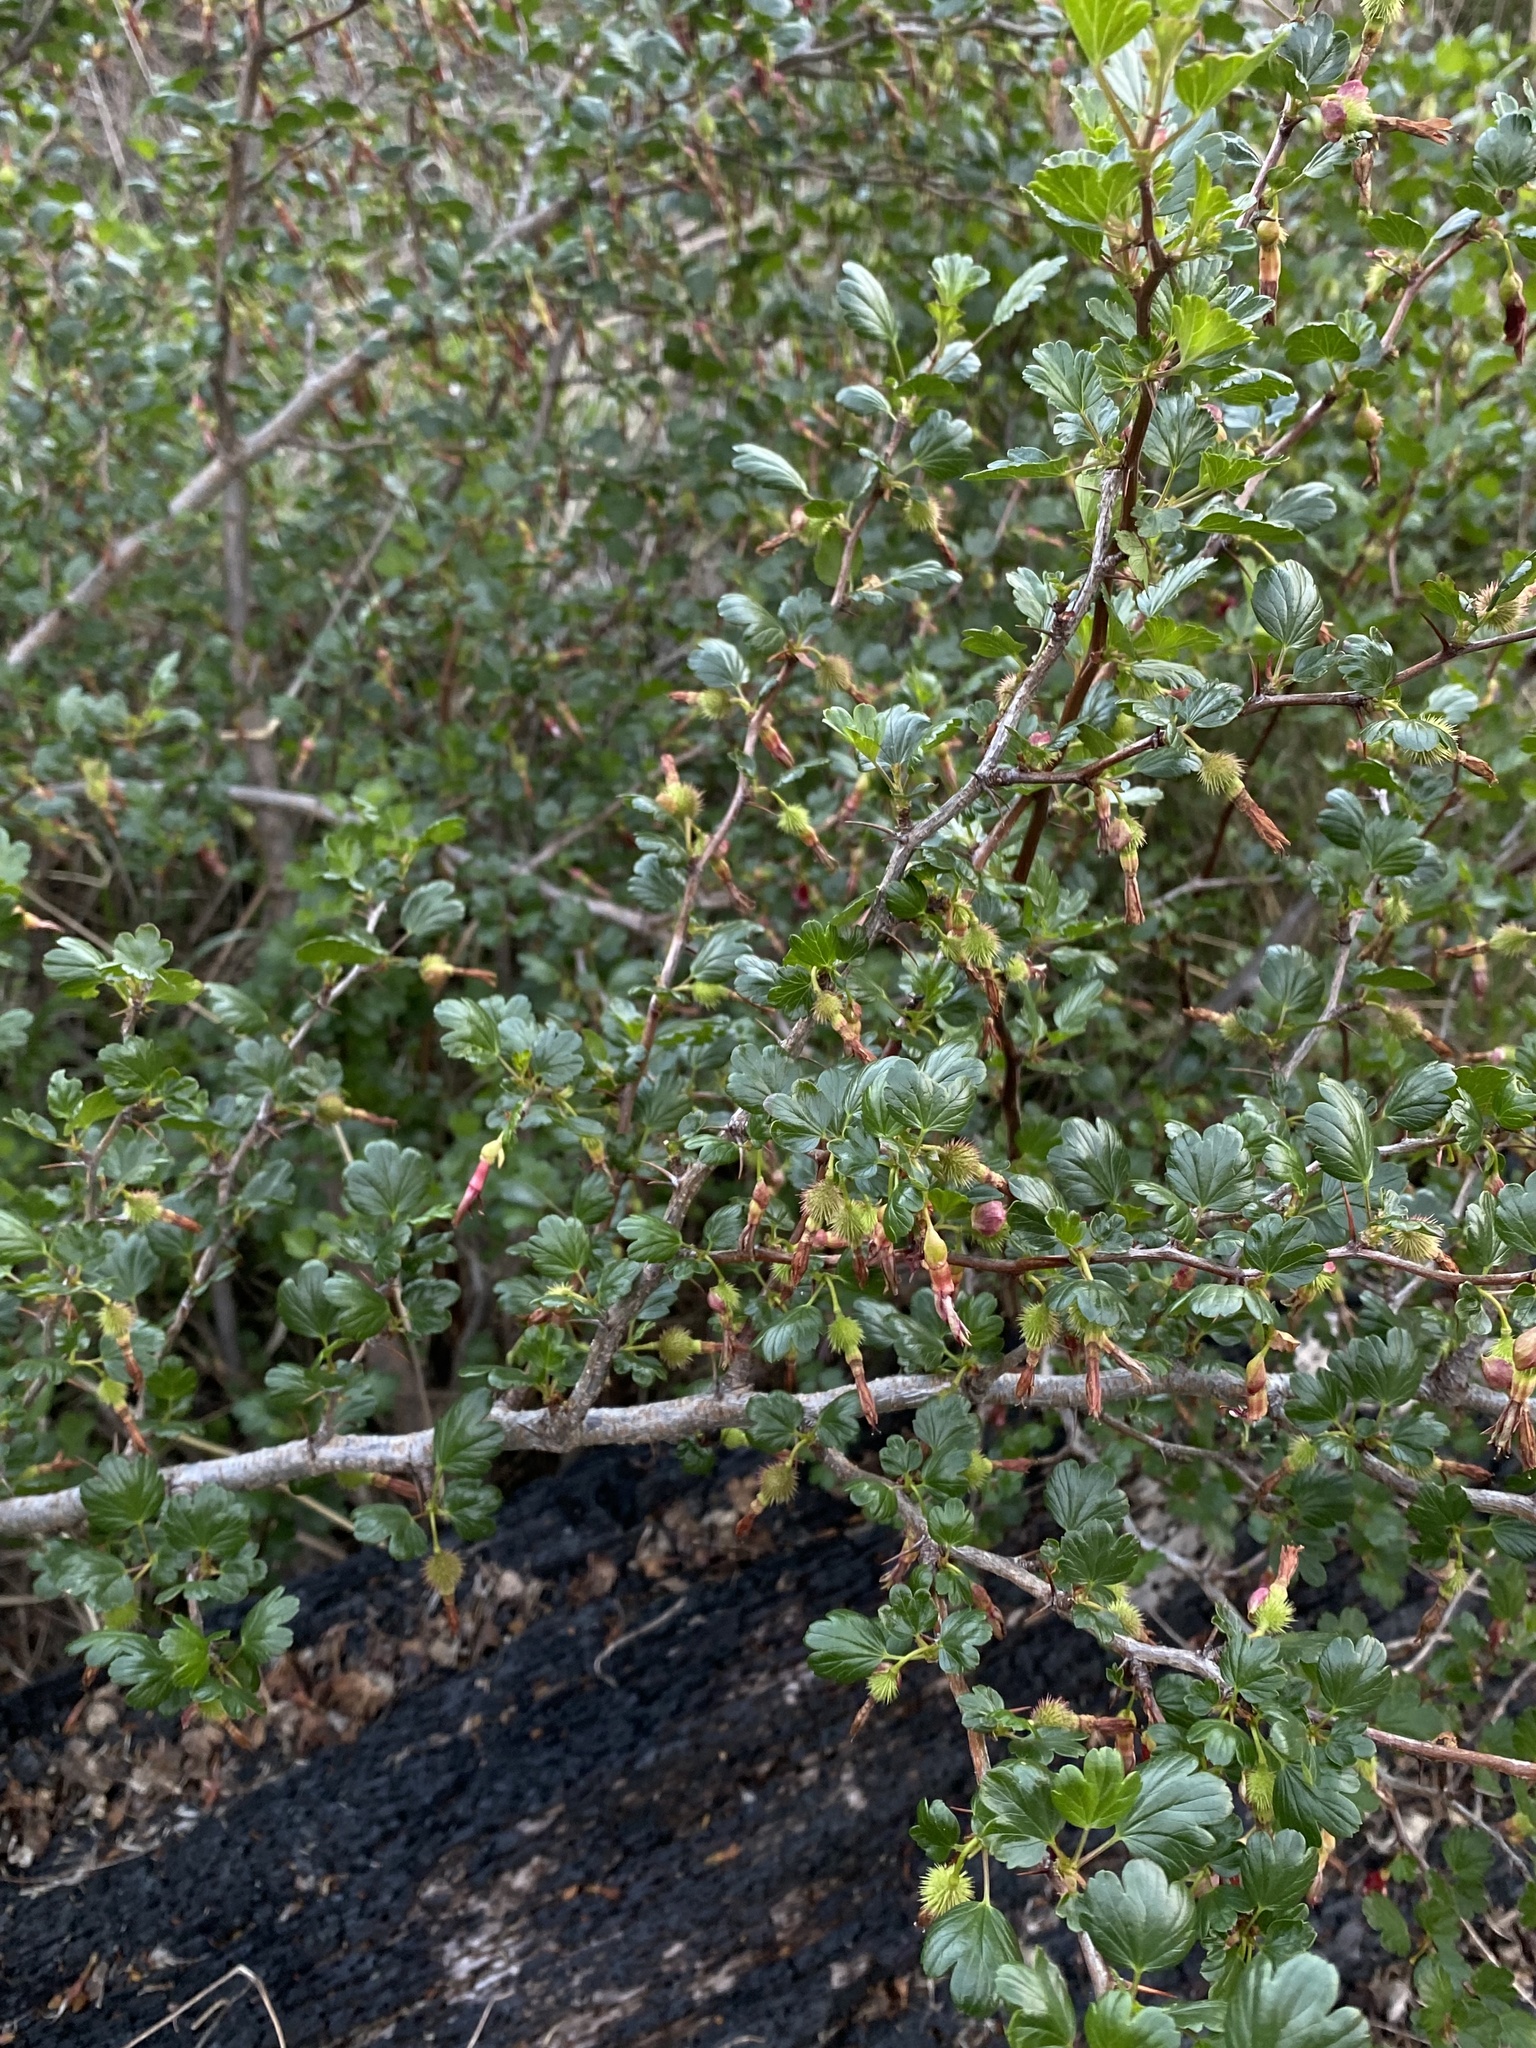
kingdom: Plantae
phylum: Tracheophyta
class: Magnoliopsida
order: Saxifragales
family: Grossulariaceae
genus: Ribes
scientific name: Ribes roezlii
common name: Sierra gooseberry
